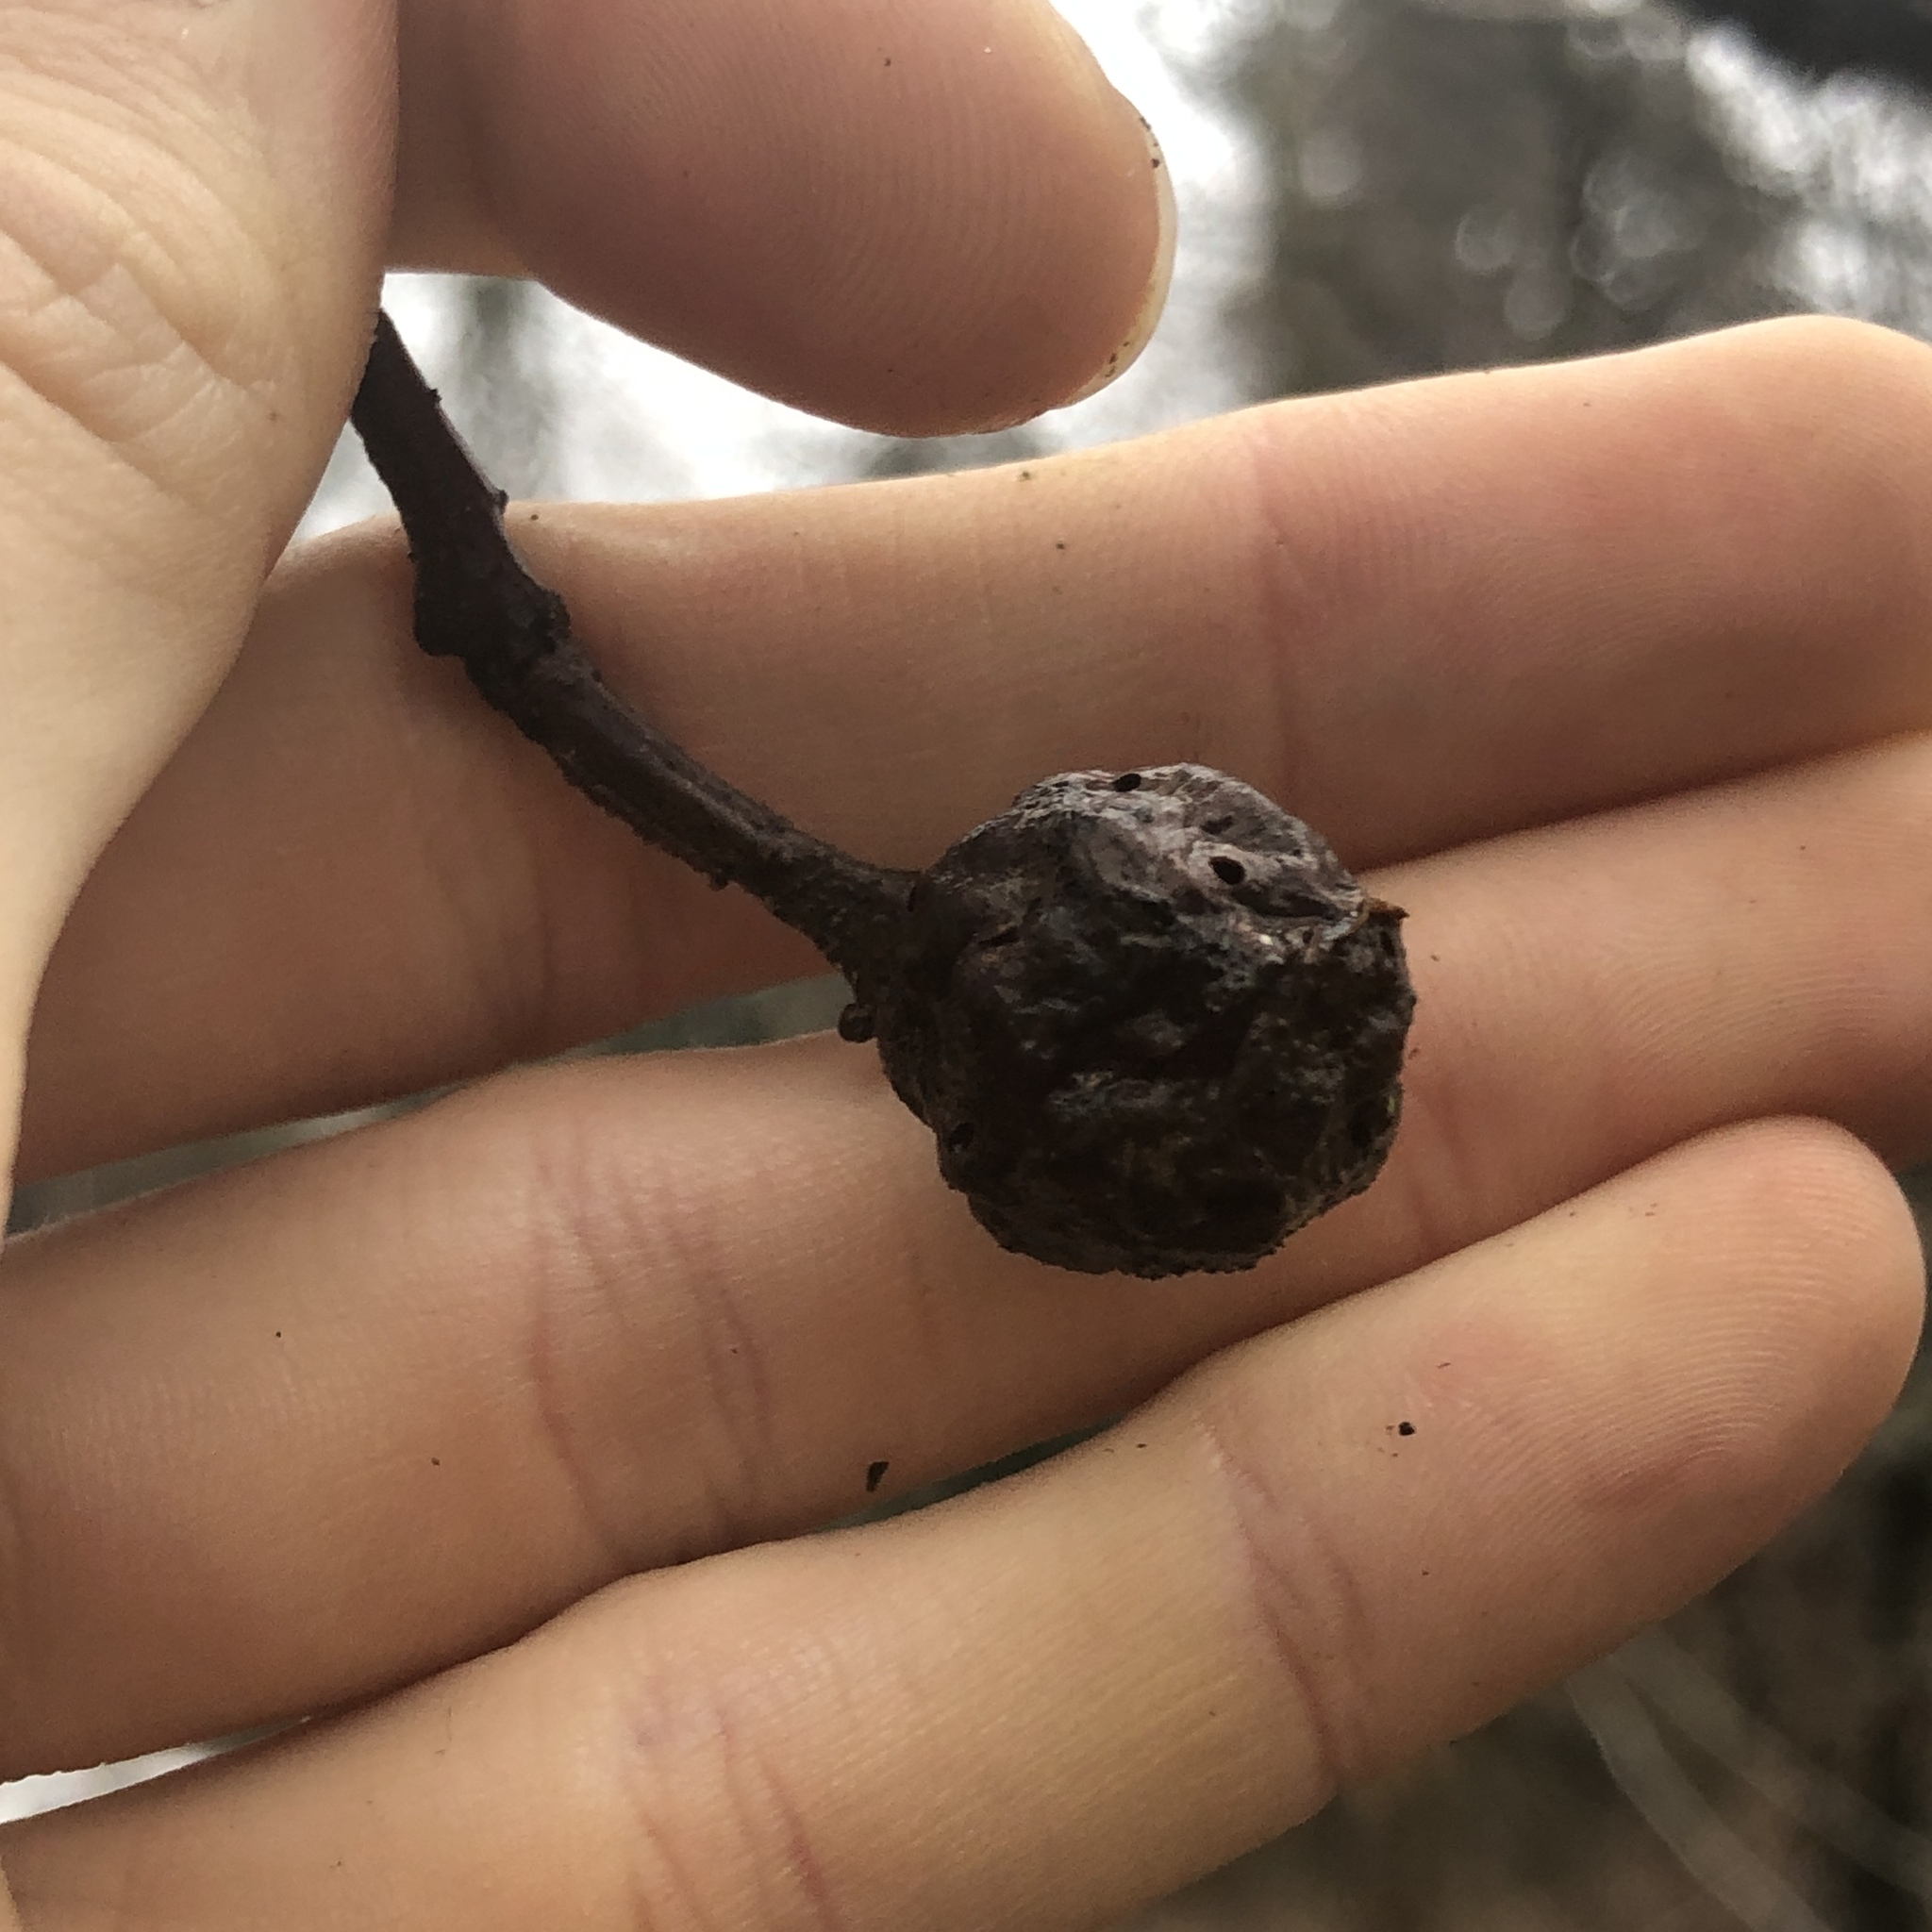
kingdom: Animalia
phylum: Arthropoda
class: Insecta
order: Hymenoptera
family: Cynipidae
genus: Andricus
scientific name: Andricus
